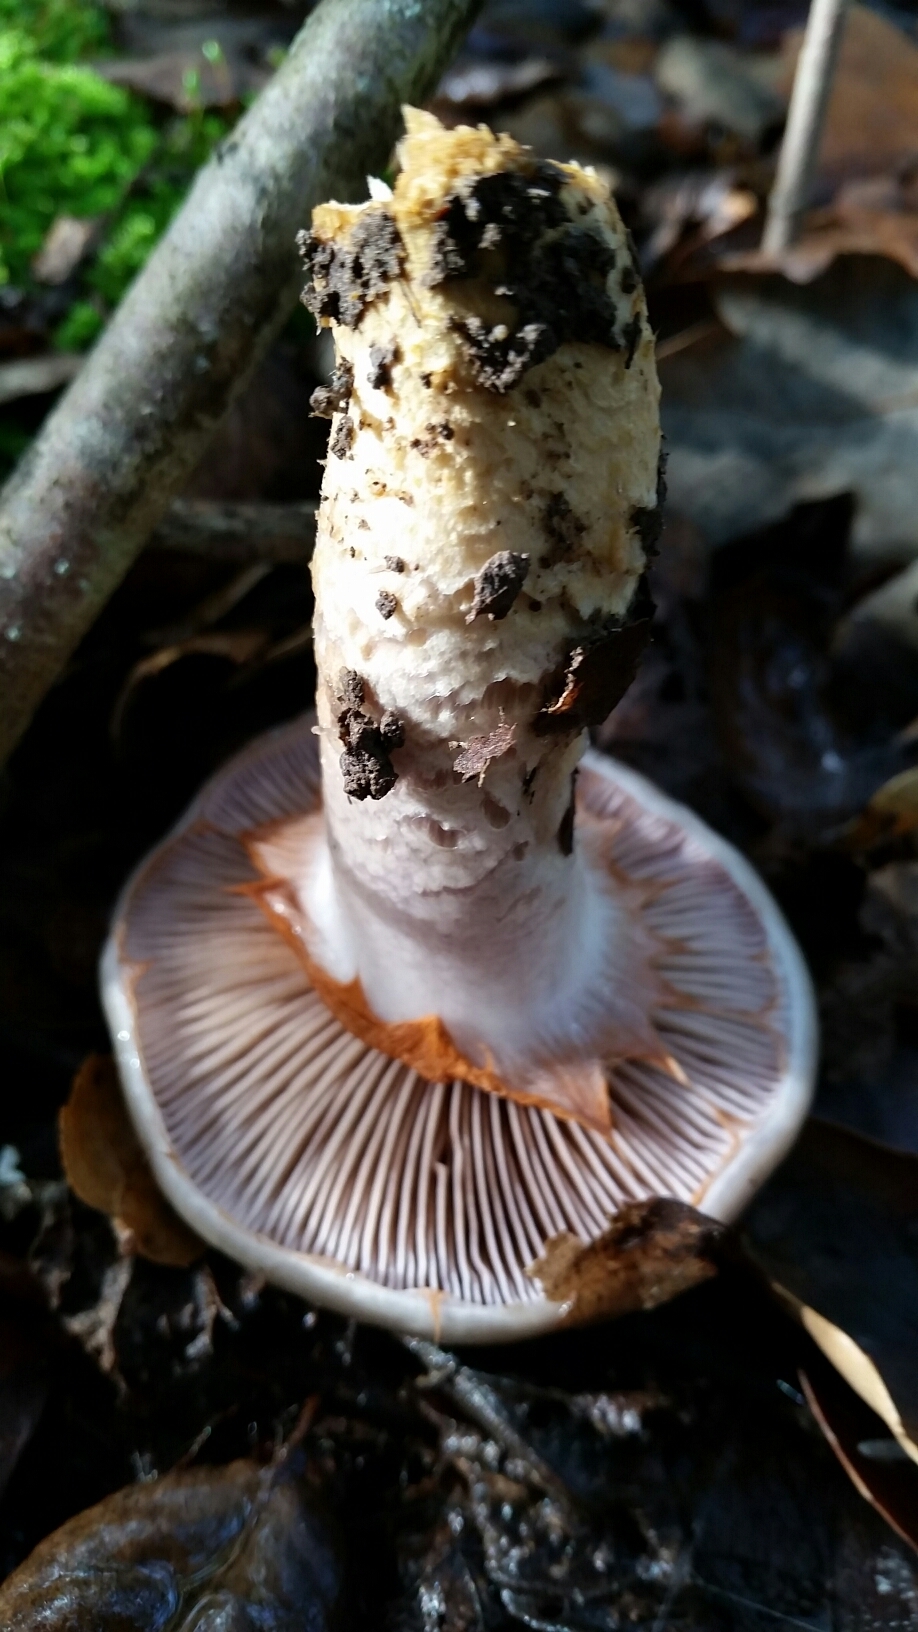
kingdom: Fungi
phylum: Basidiomycota
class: Agaricomycetes
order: Agaricales
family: Cortinariaceae
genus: Cortinarius
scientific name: Cortinarius glutinosoarmillatus
